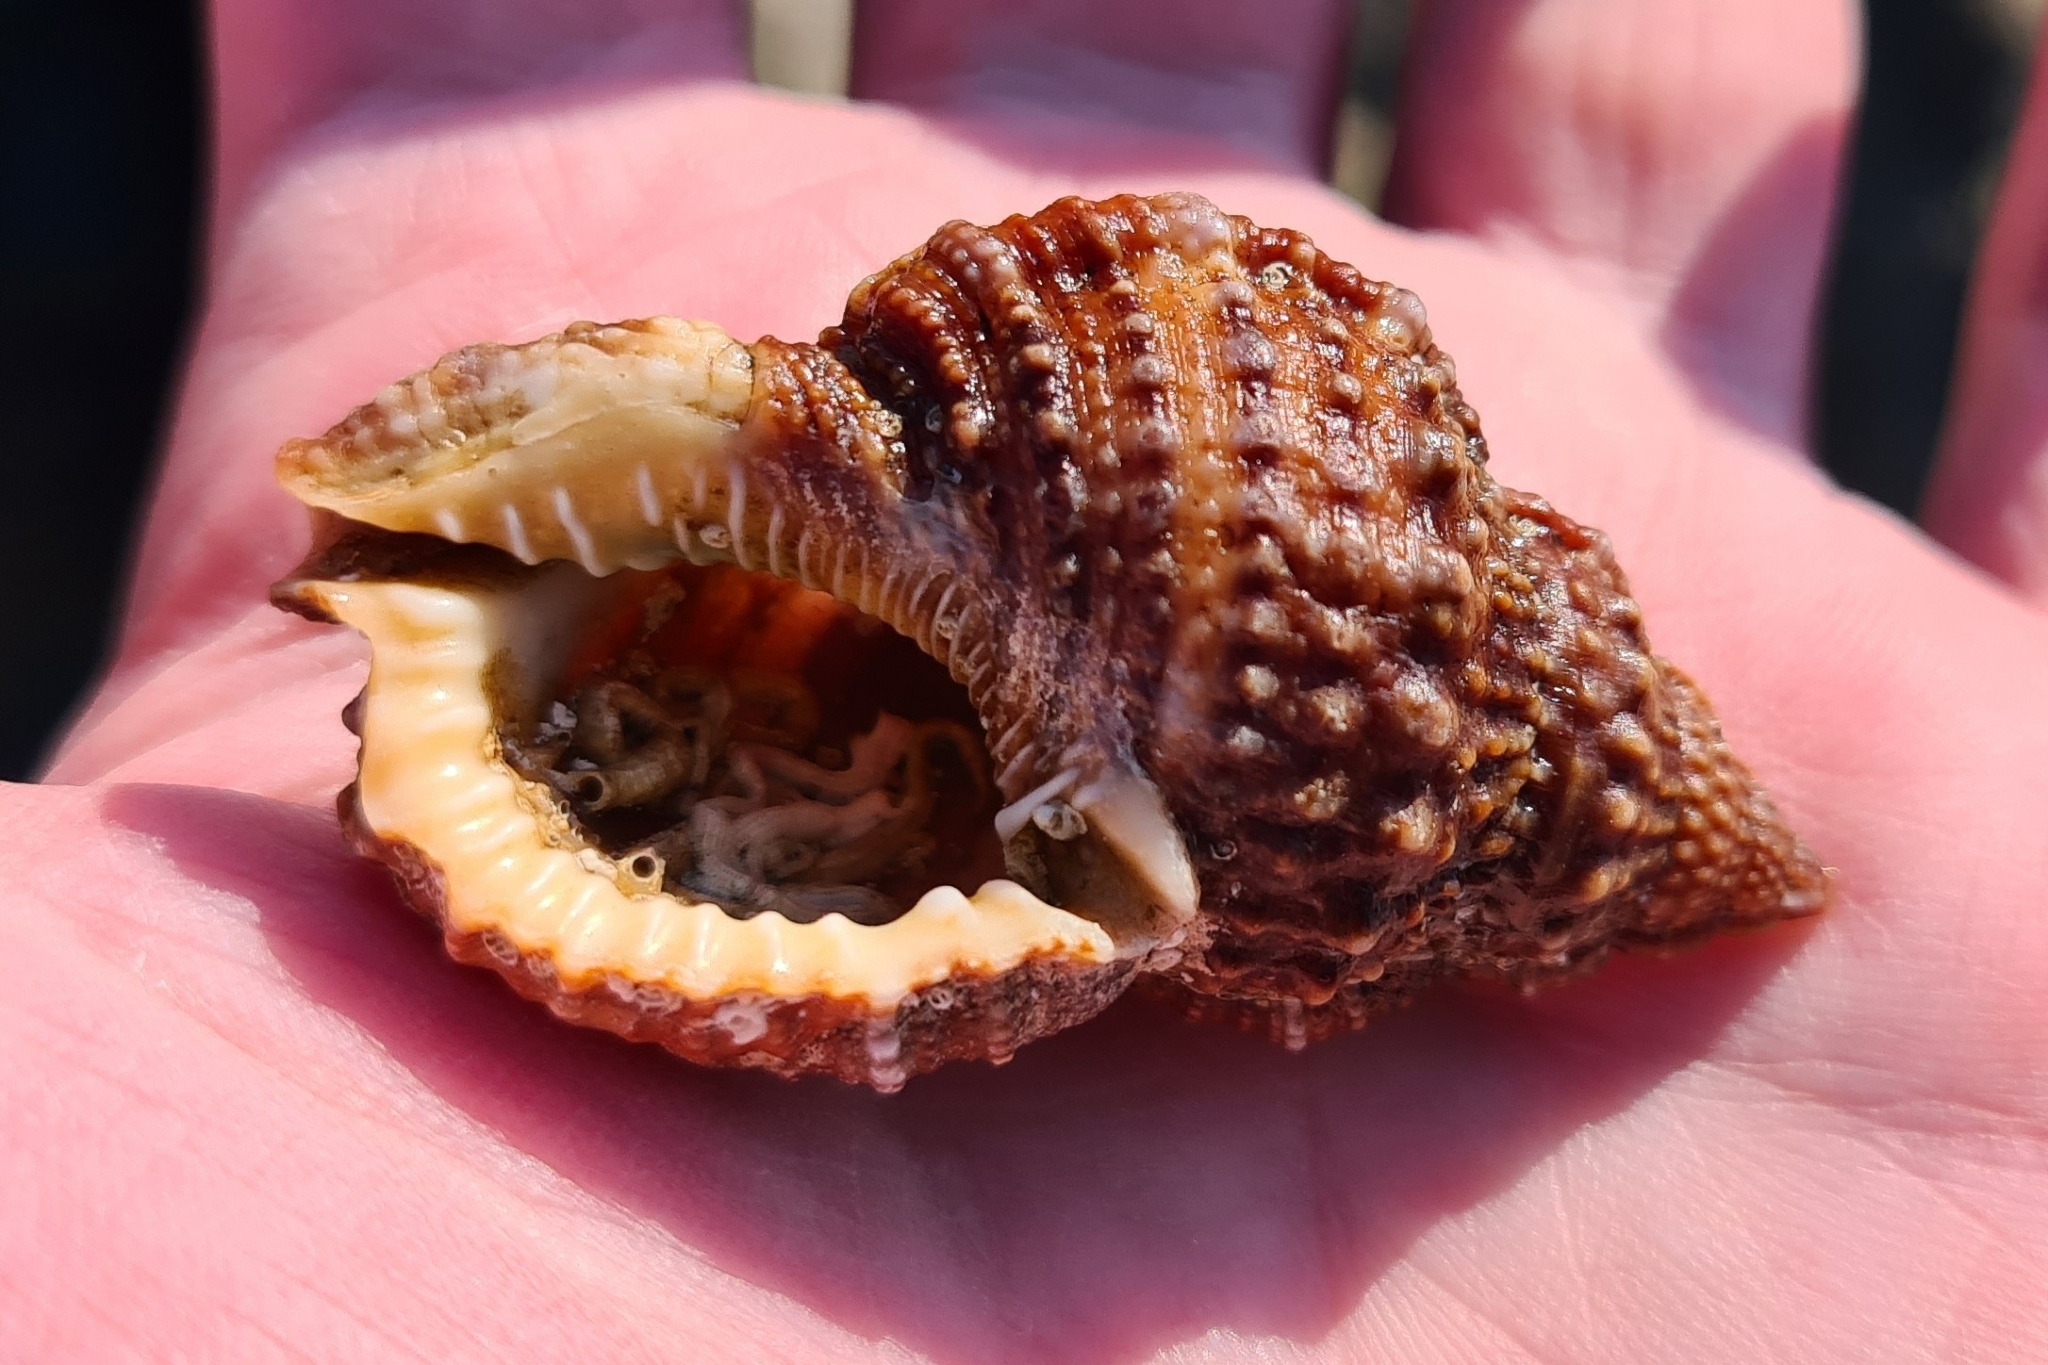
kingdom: Animalia
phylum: Mollusca
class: Gastropoda
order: Littorinimorpha
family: Bursidae
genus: Dulcerana
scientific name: Dulcerana granularis
